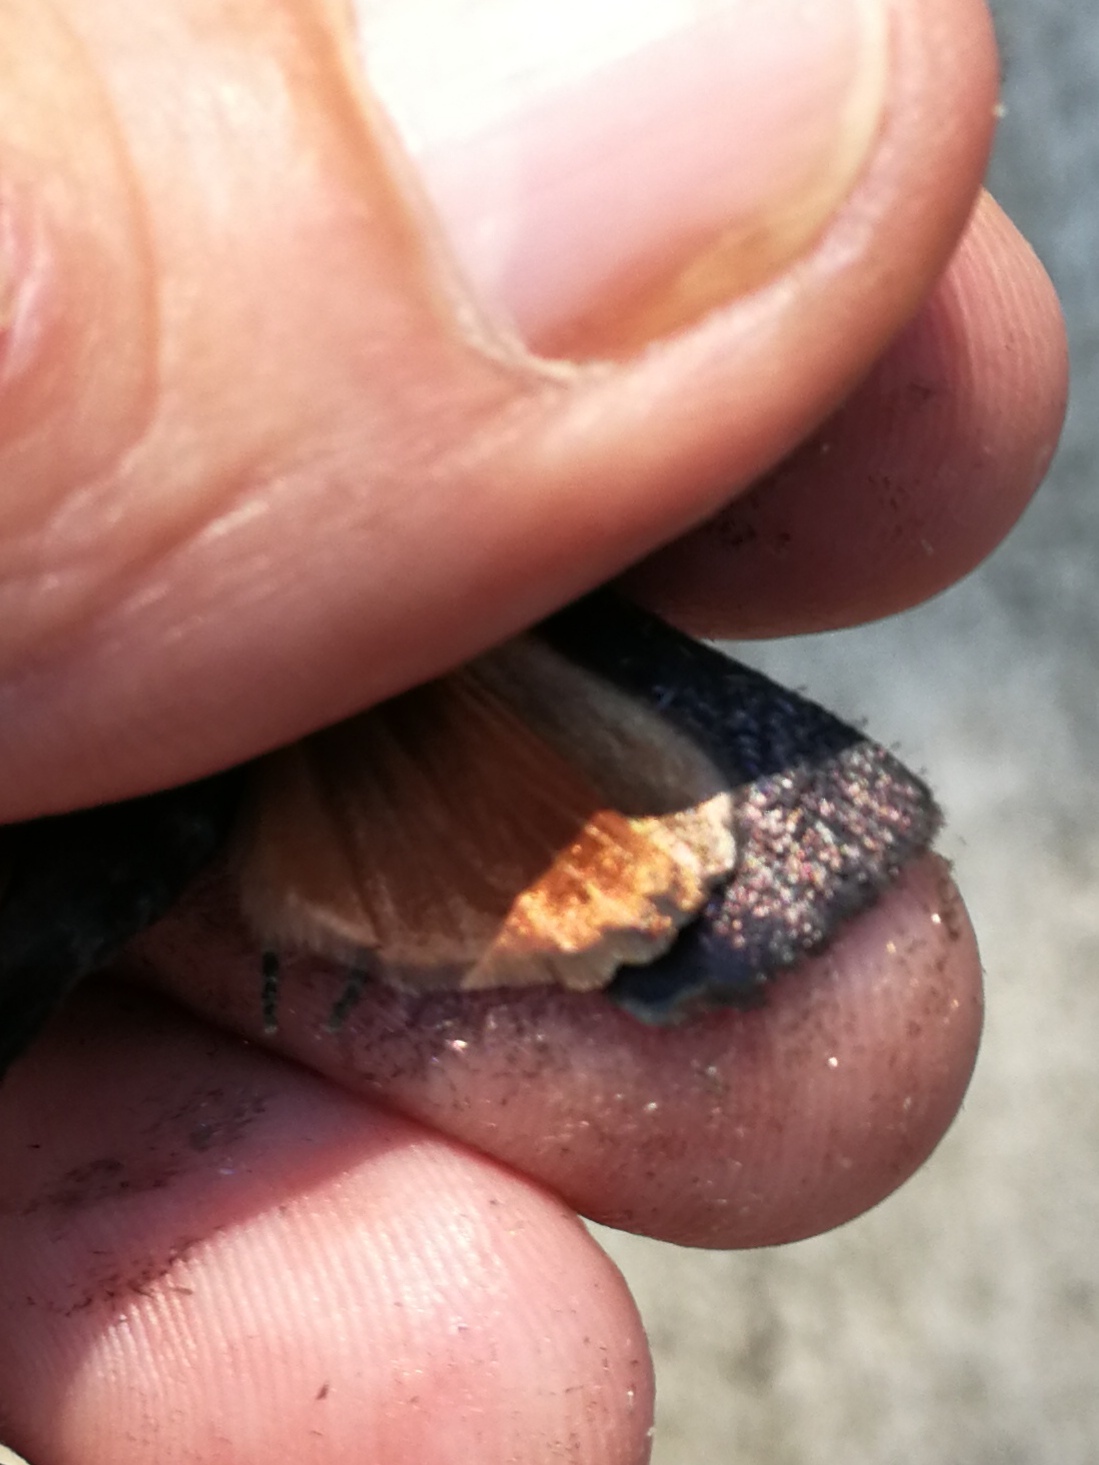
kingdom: Animalia
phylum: Arthropoda
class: Insecta
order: Lepidoptera
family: Noctuidae
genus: Amphipyra
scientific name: Amphipyra livida
